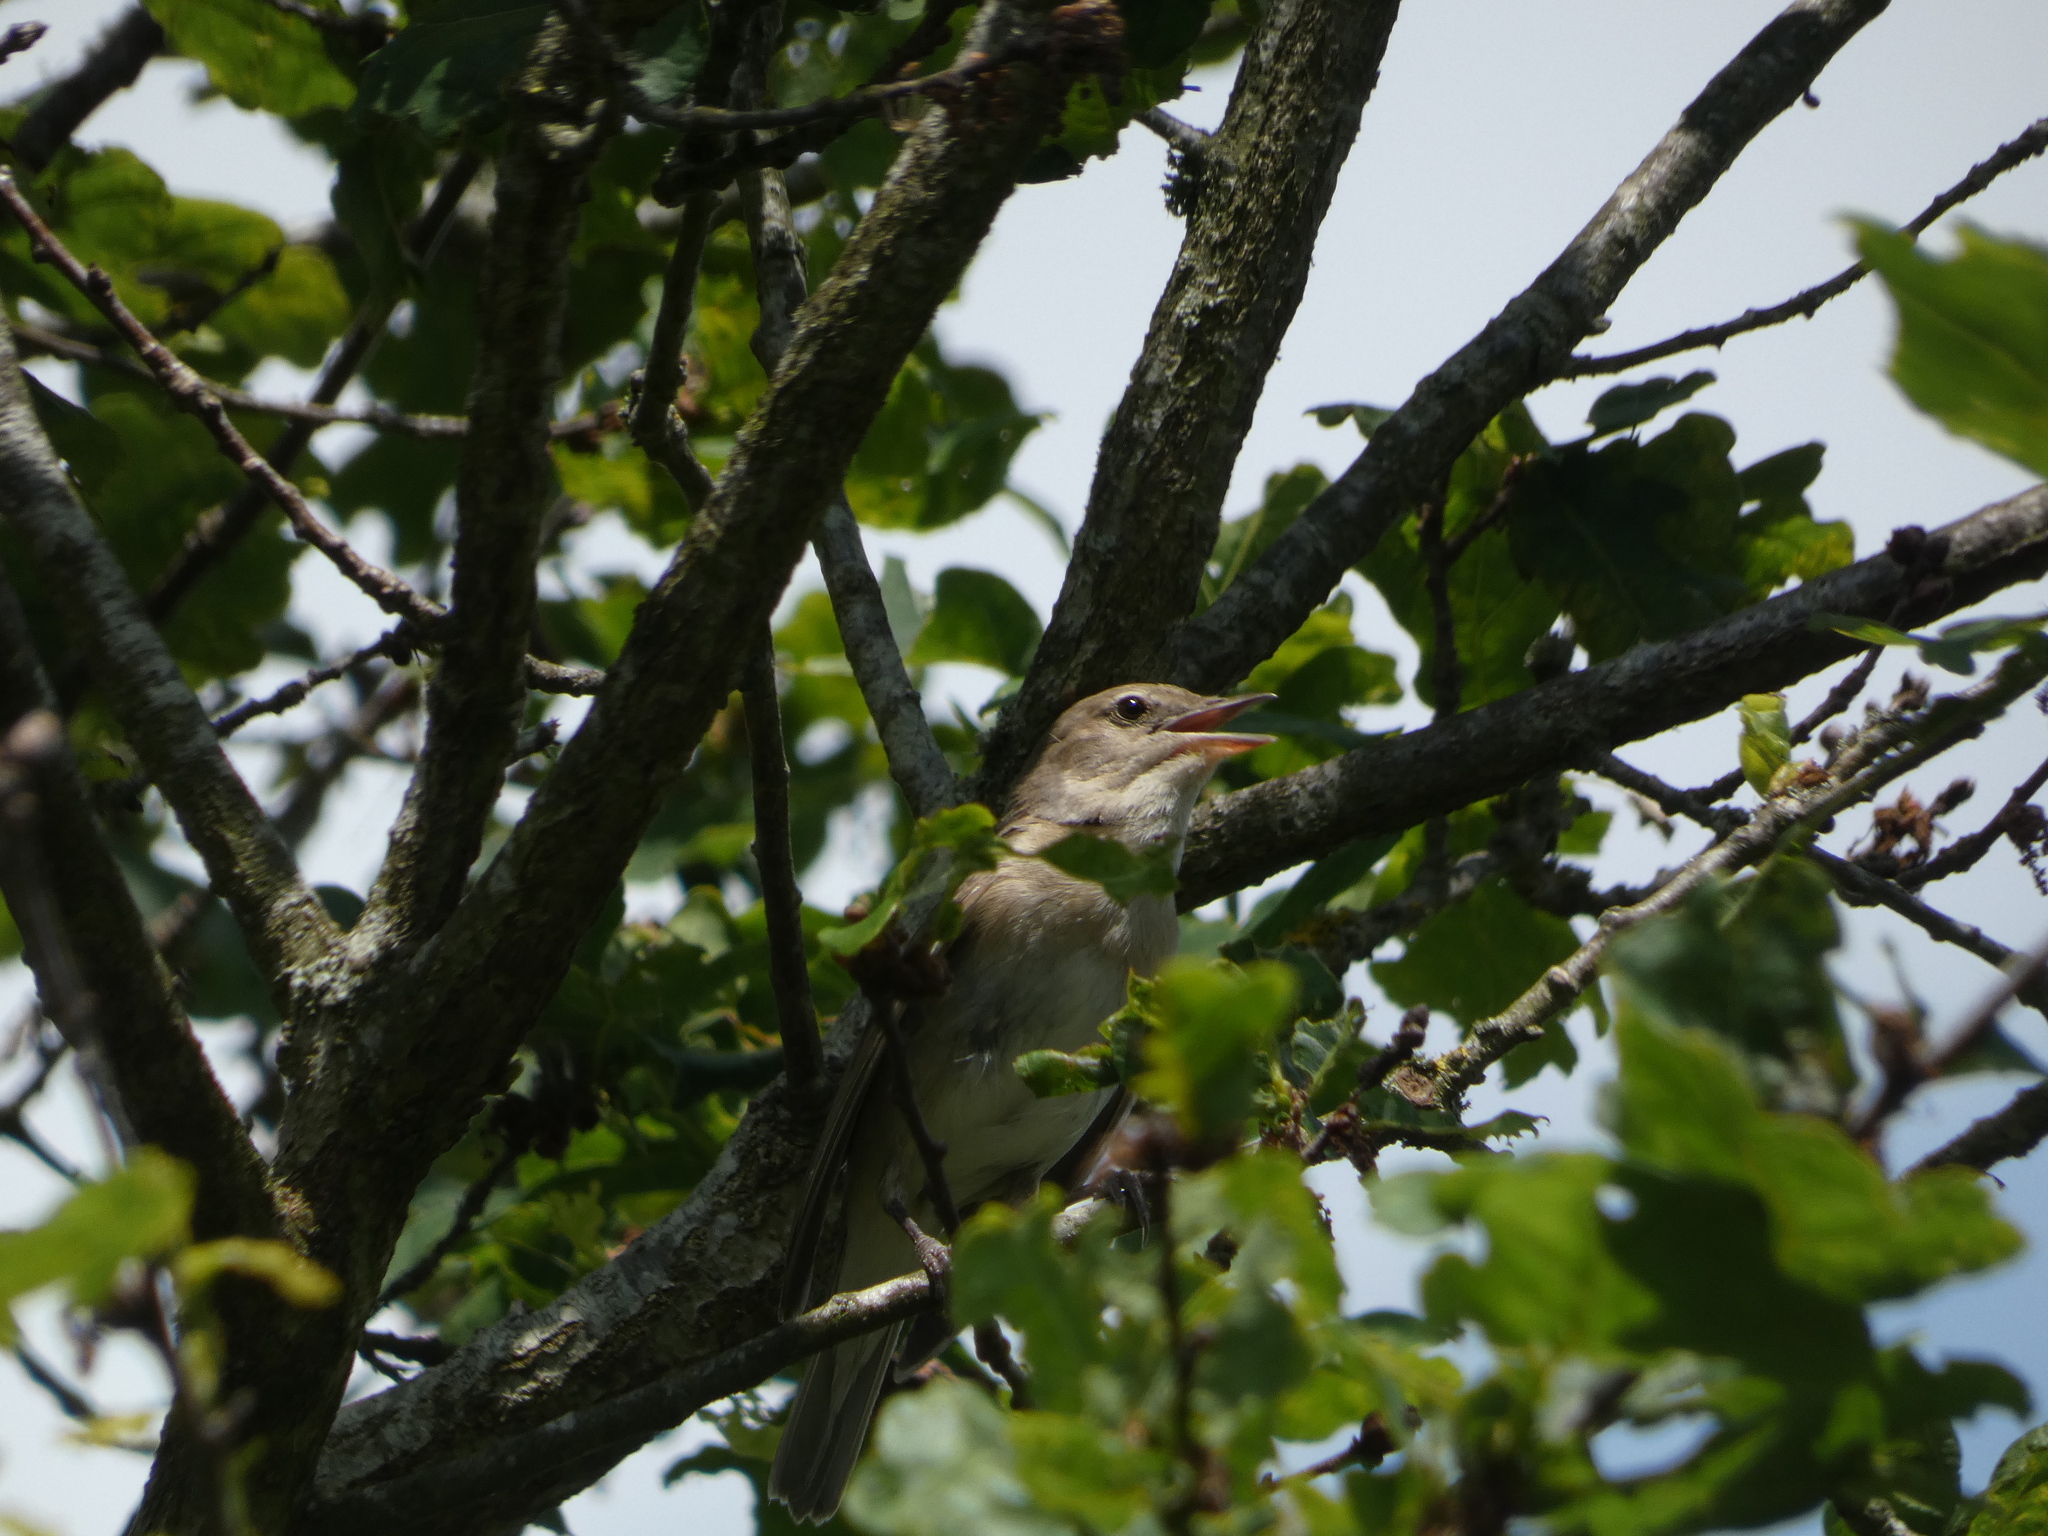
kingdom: Animalia
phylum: Chordata
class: Aves
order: Passeriformes
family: Muscicapidae
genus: Luscinia
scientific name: Luscinia megarhynchos
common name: Common nightingale
